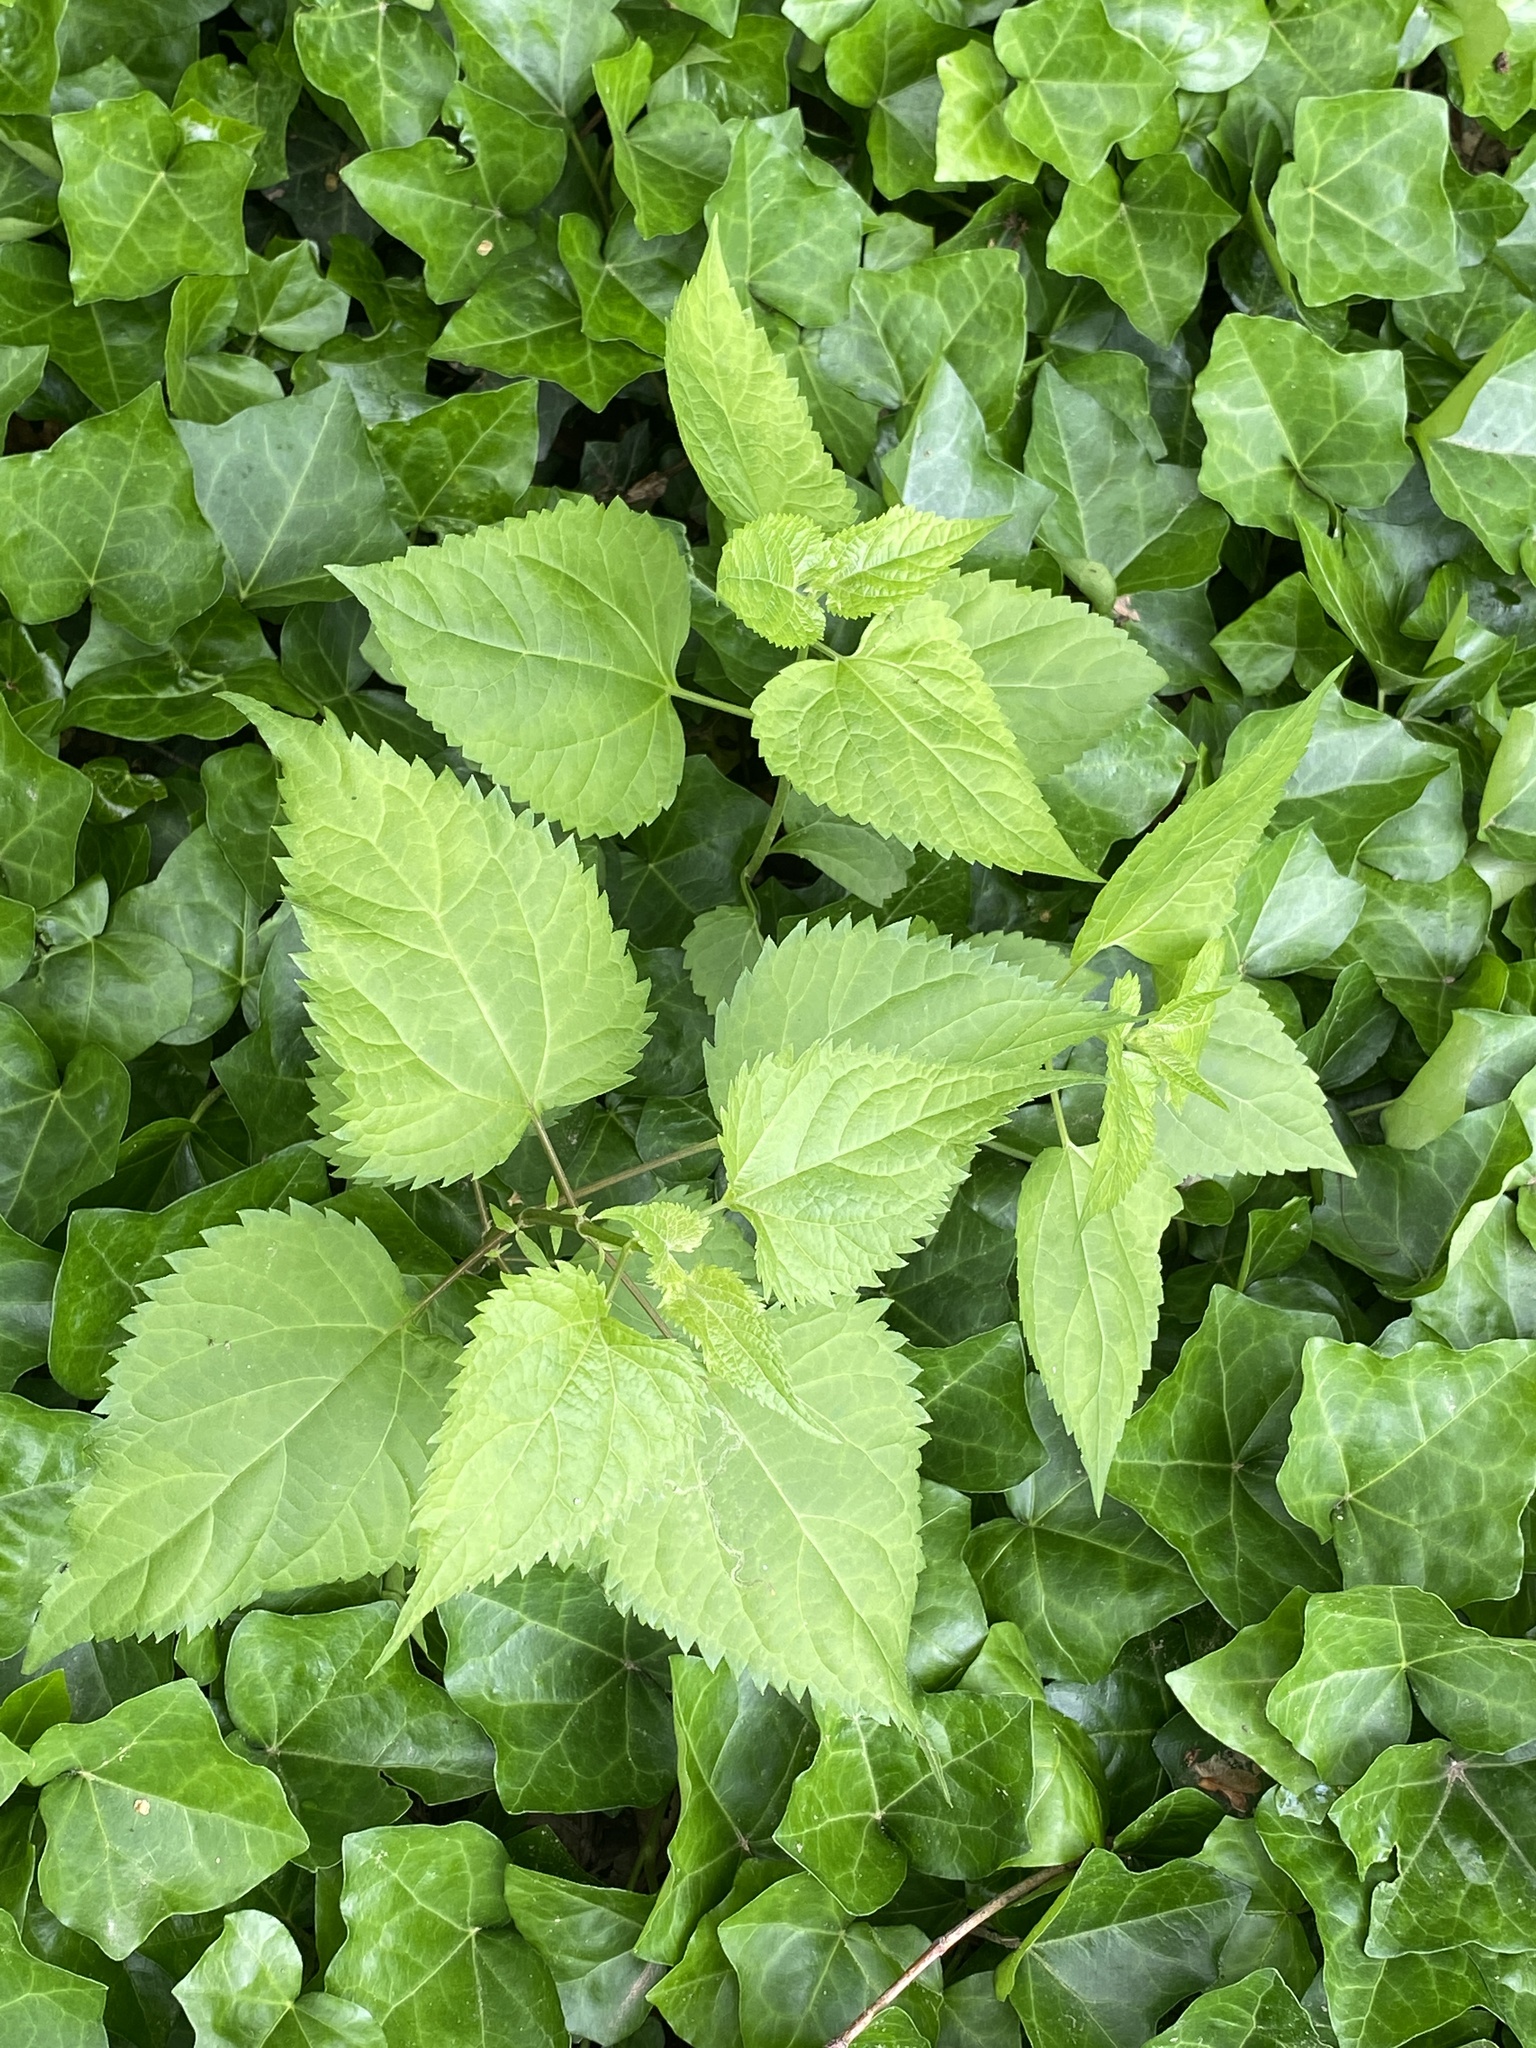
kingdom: Plantae
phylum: Tracheophyta
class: Magnoliopsida
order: Asterales
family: Asteraceae
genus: Ageratina
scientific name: Ageratina altissima
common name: White snakeroot
